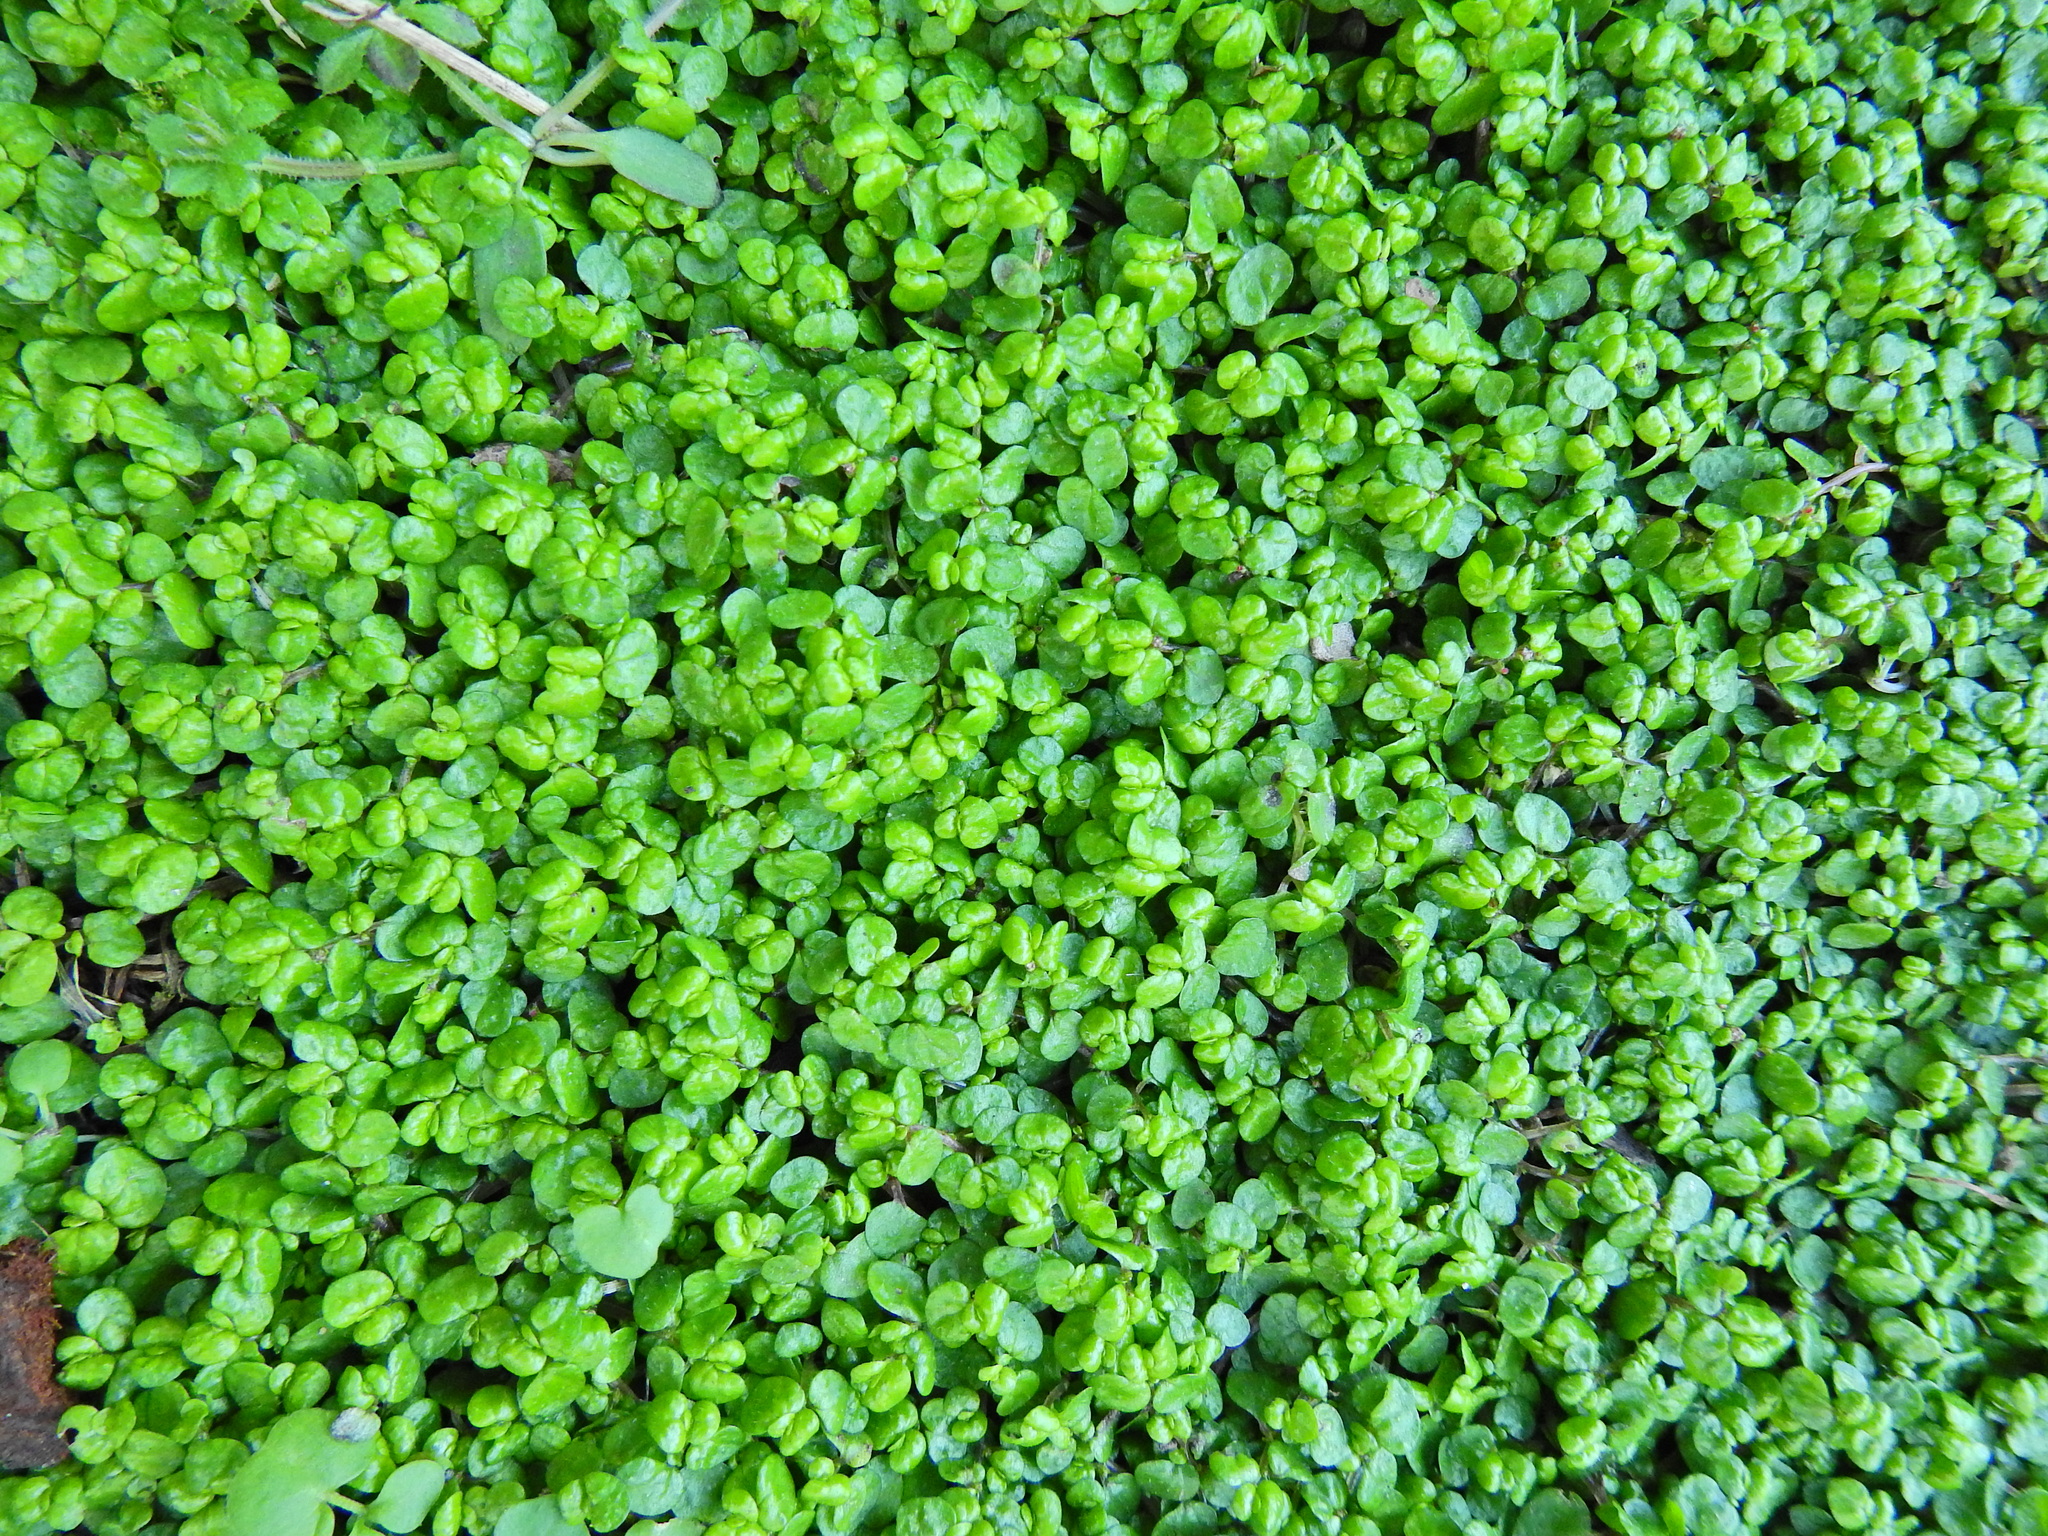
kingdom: Plantae
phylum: Tracheophyta
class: Magnoliopsida
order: Rosales
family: Urticaceae
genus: Soleirolia
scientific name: Soleirolia soleirolii
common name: Mind-your-own-business
